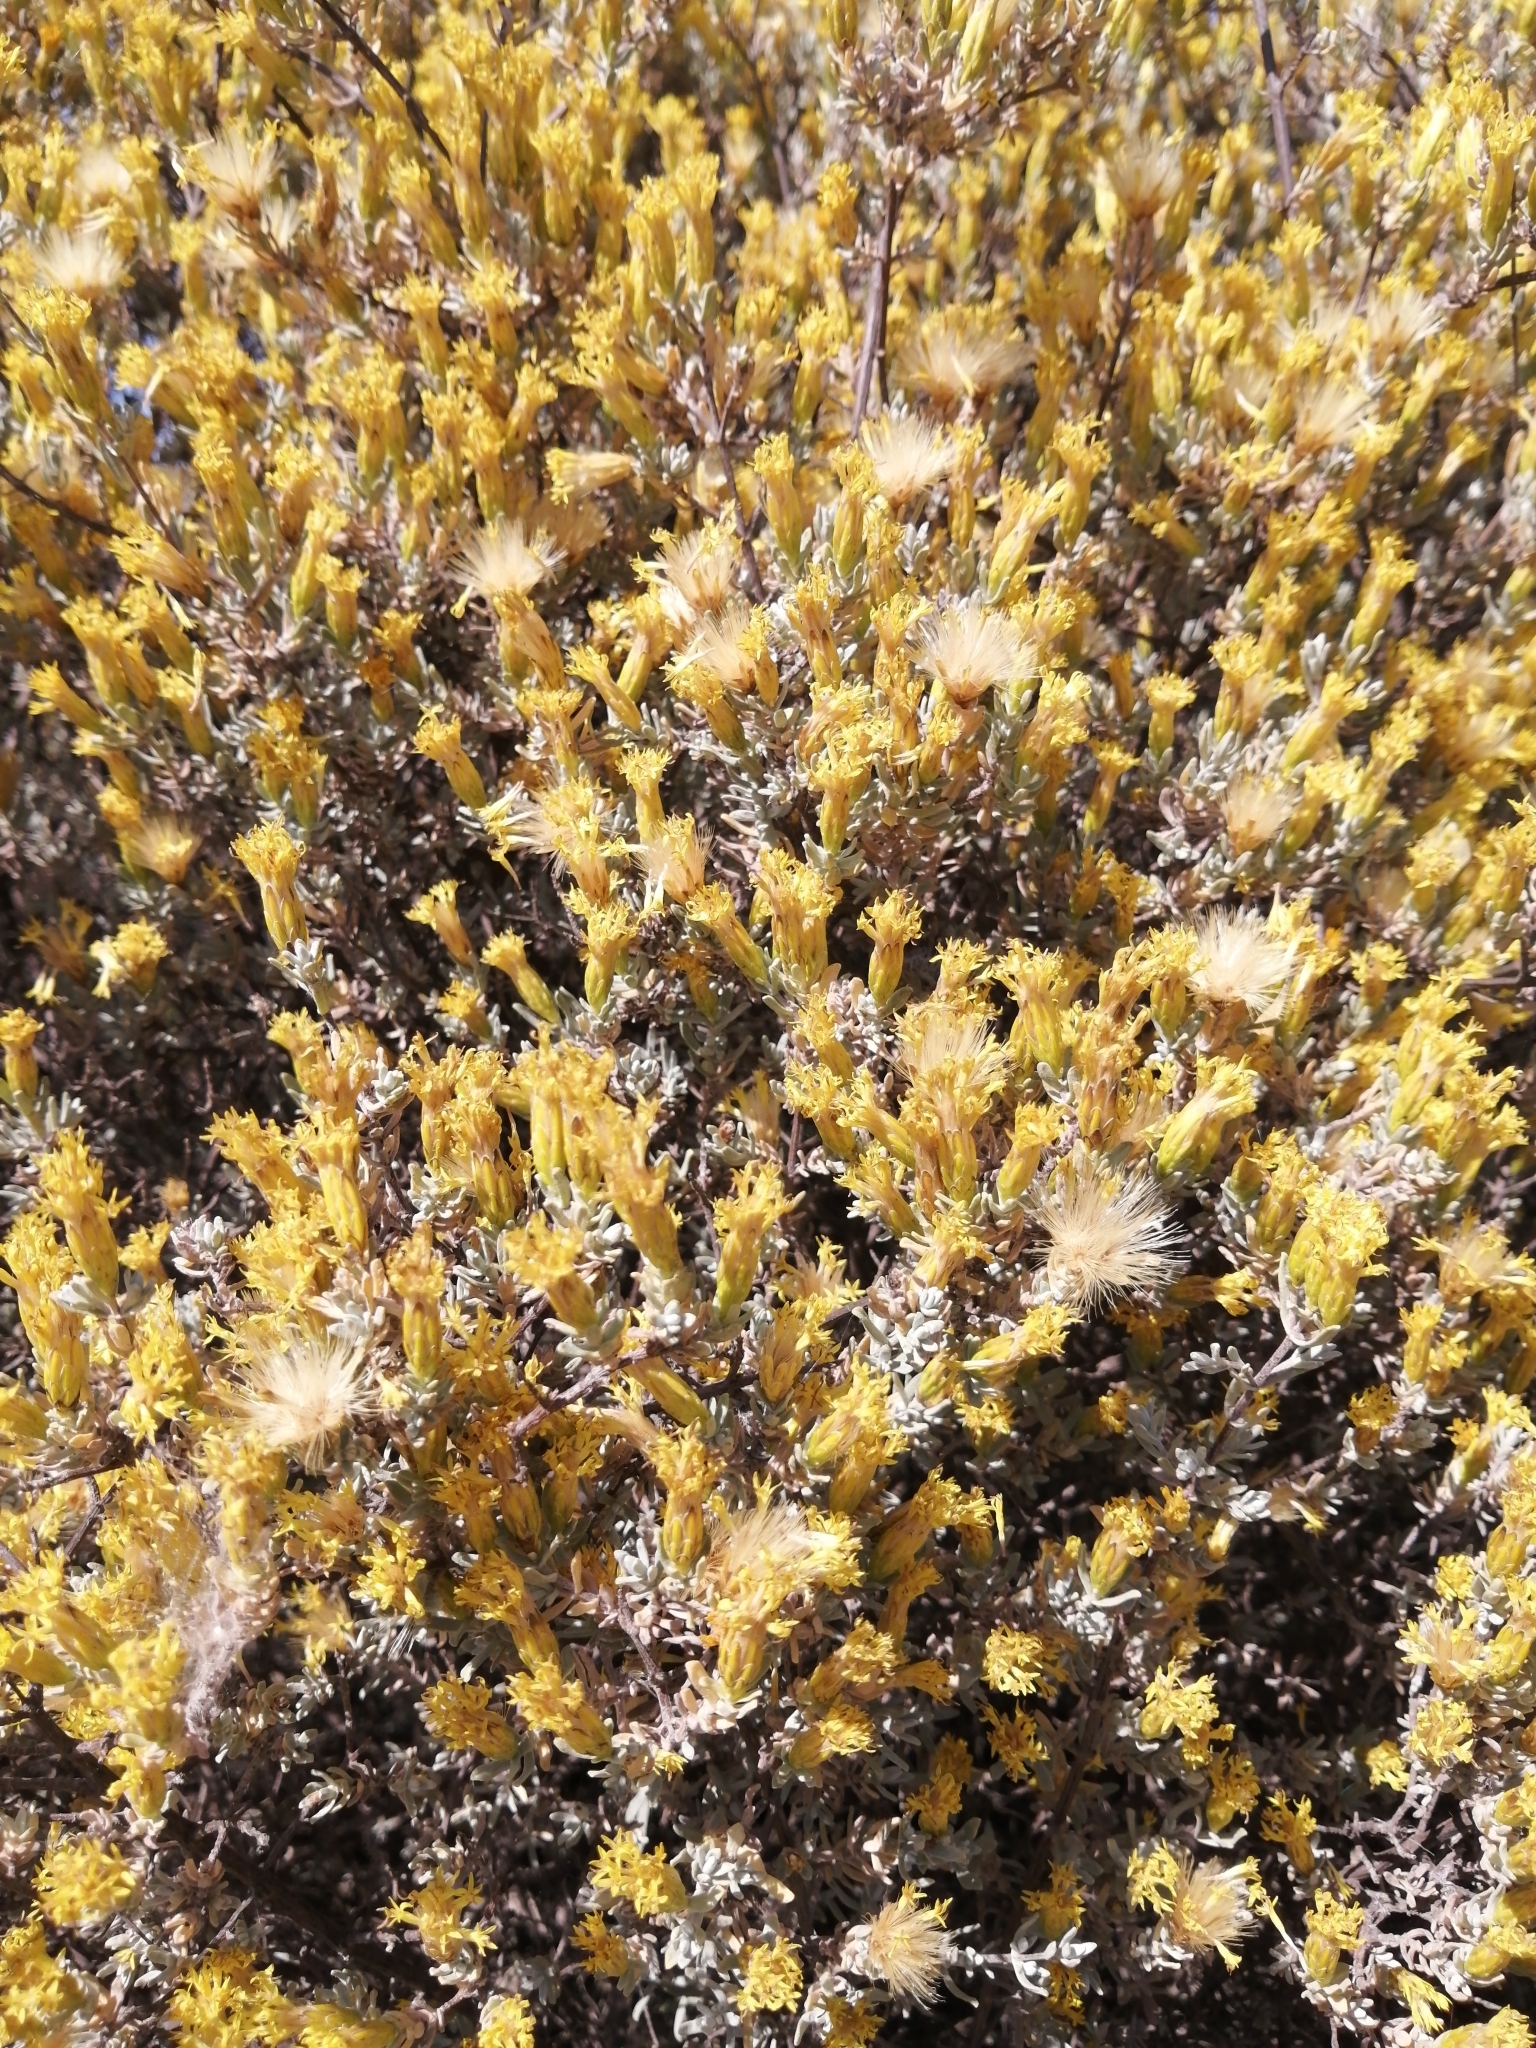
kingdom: Plantae
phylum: Tracheophyta
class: Magnoliopsida
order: Asterales
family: Asteraceae
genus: Pteronia
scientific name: Pteronia incana
